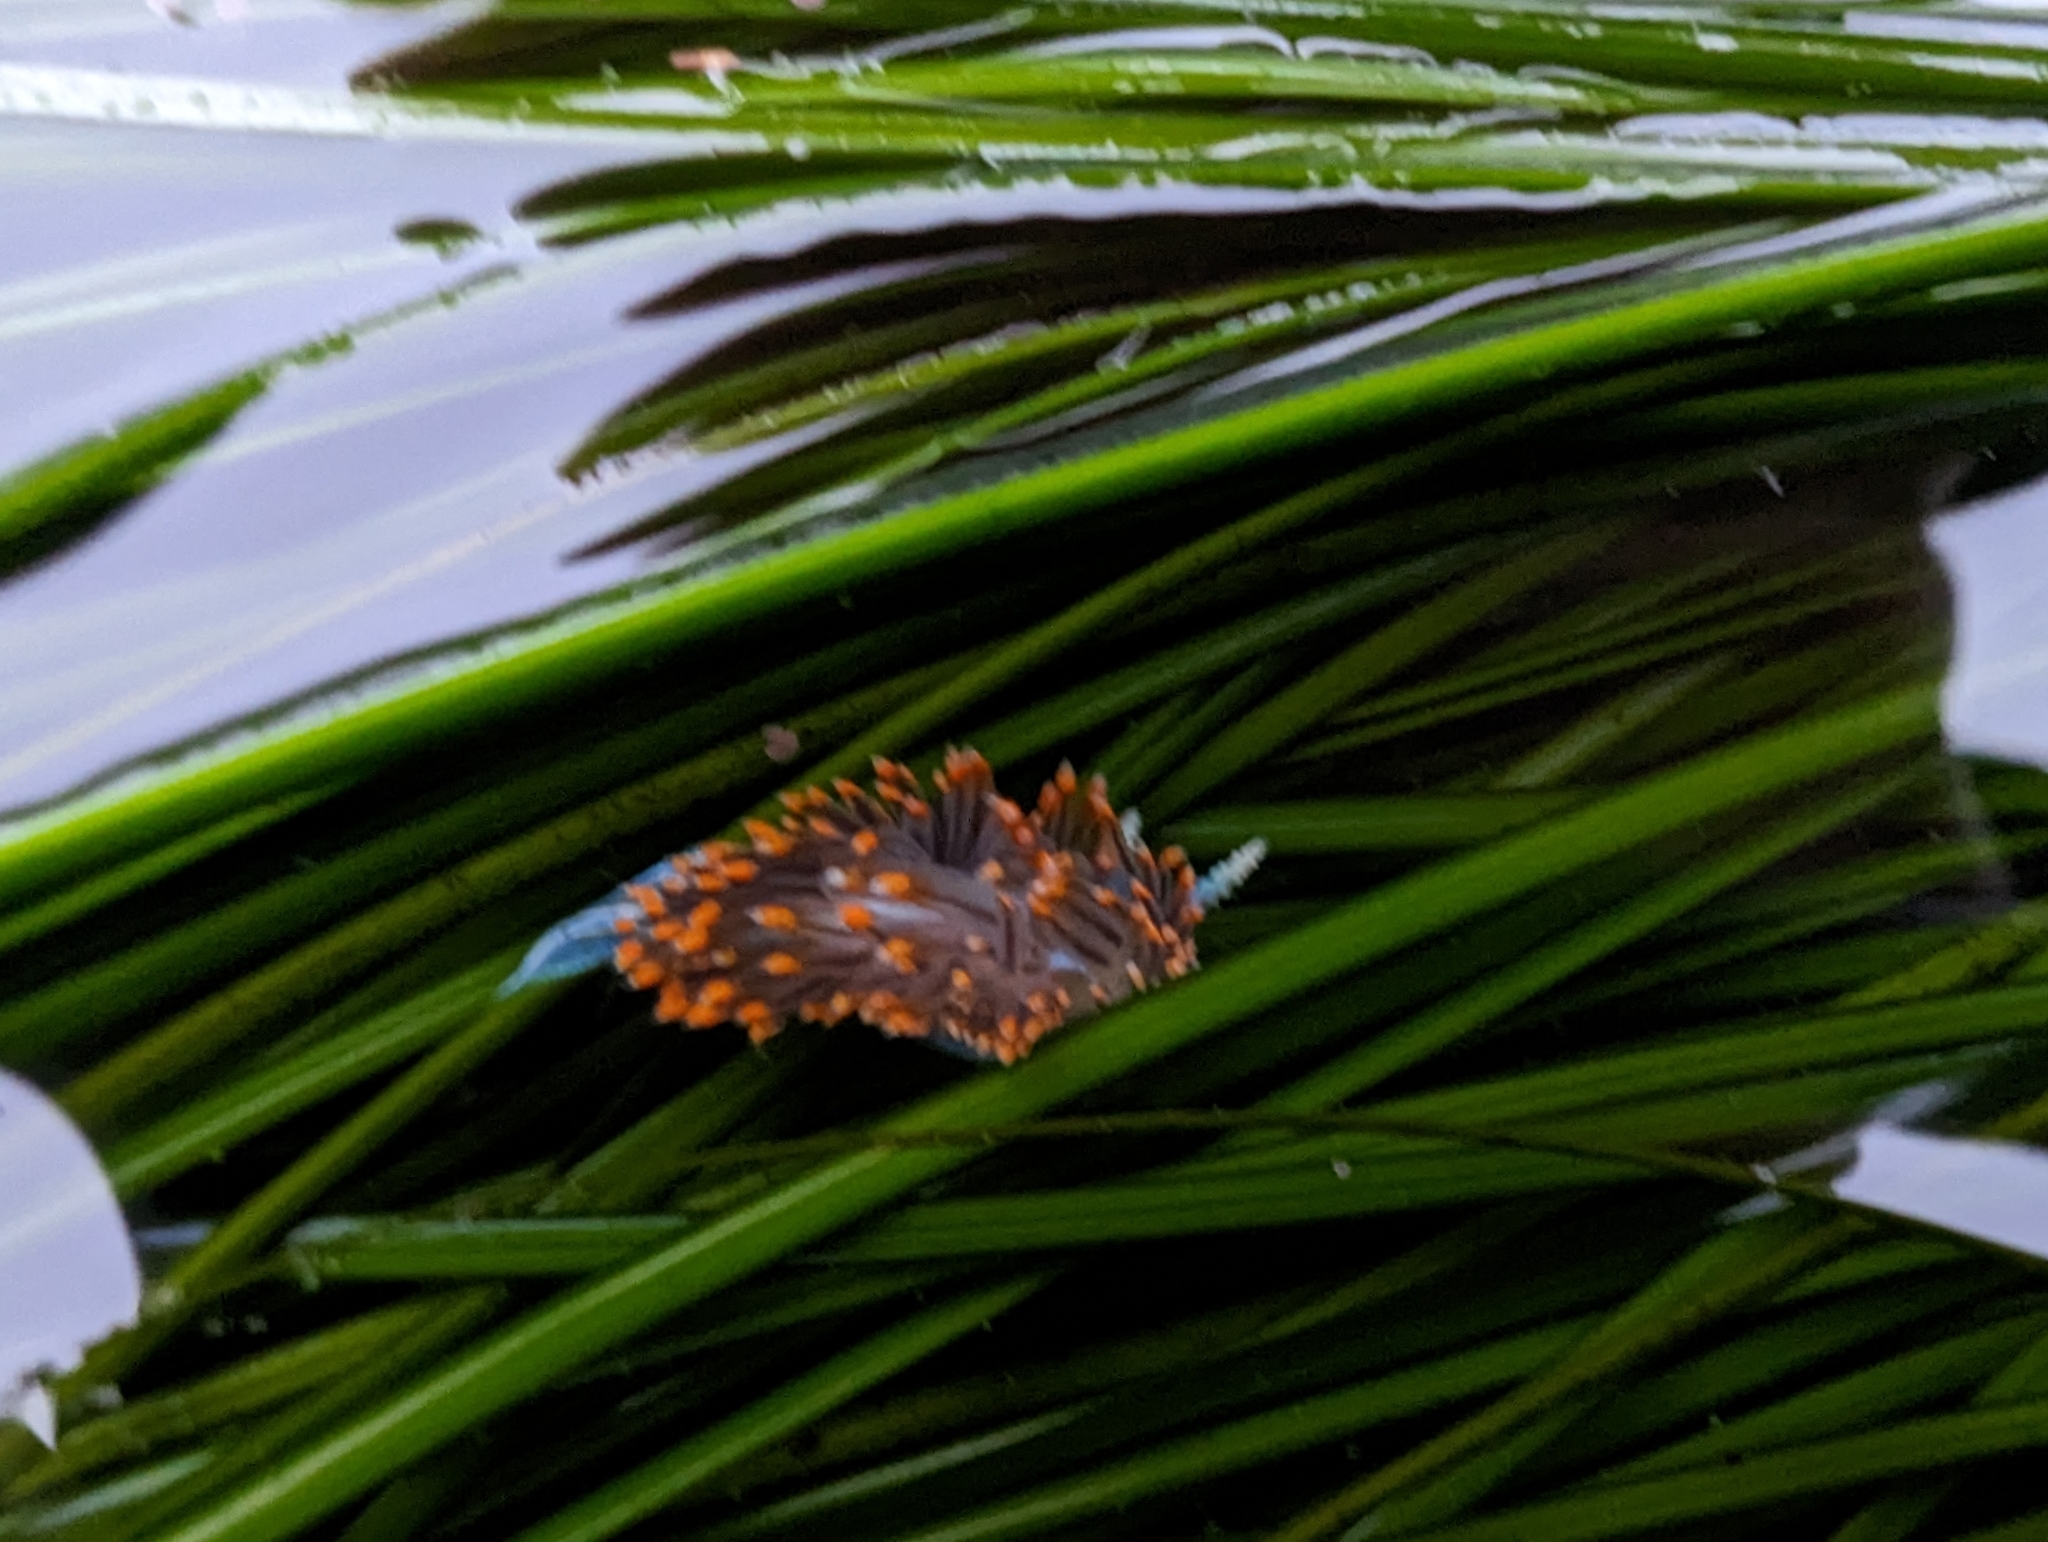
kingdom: Animalia
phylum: Mollusca
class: Gastropoda
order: Nudibranchia
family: Myrrhinidae
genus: Hermissenda
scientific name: Hermissenda opalescens
